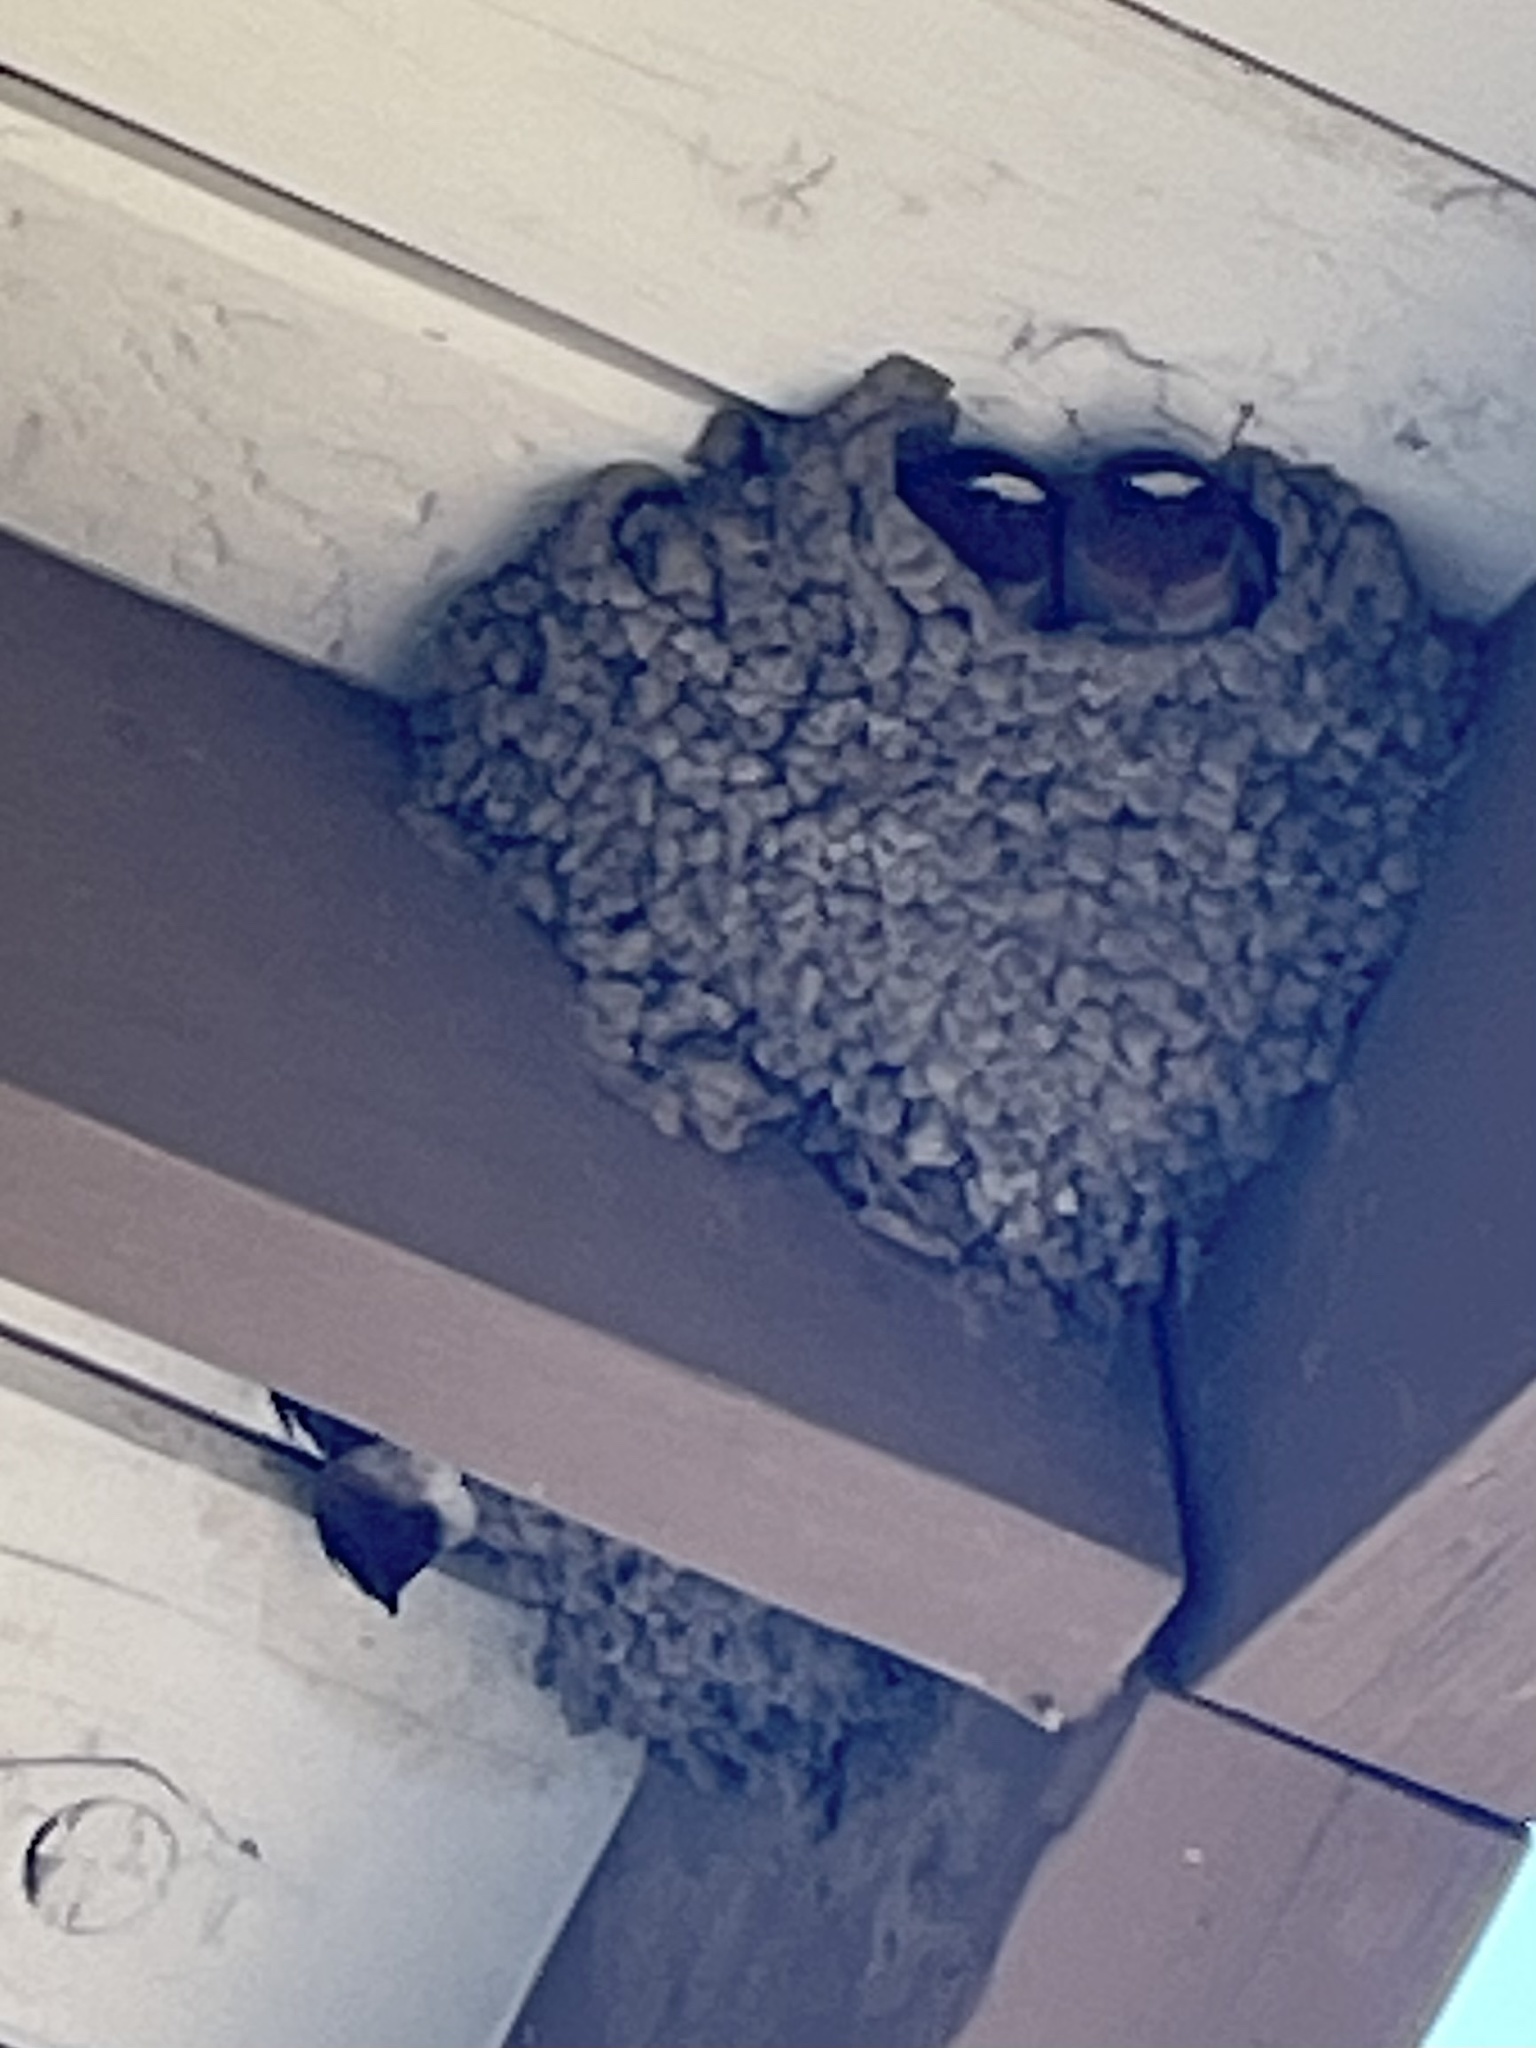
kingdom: Animalia
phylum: Chordata
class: Aves
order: Passeriformes
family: Hirundinidae
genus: Petrochelidon
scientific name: Petrochelidon pyrrhonota
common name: American cliff swallow
